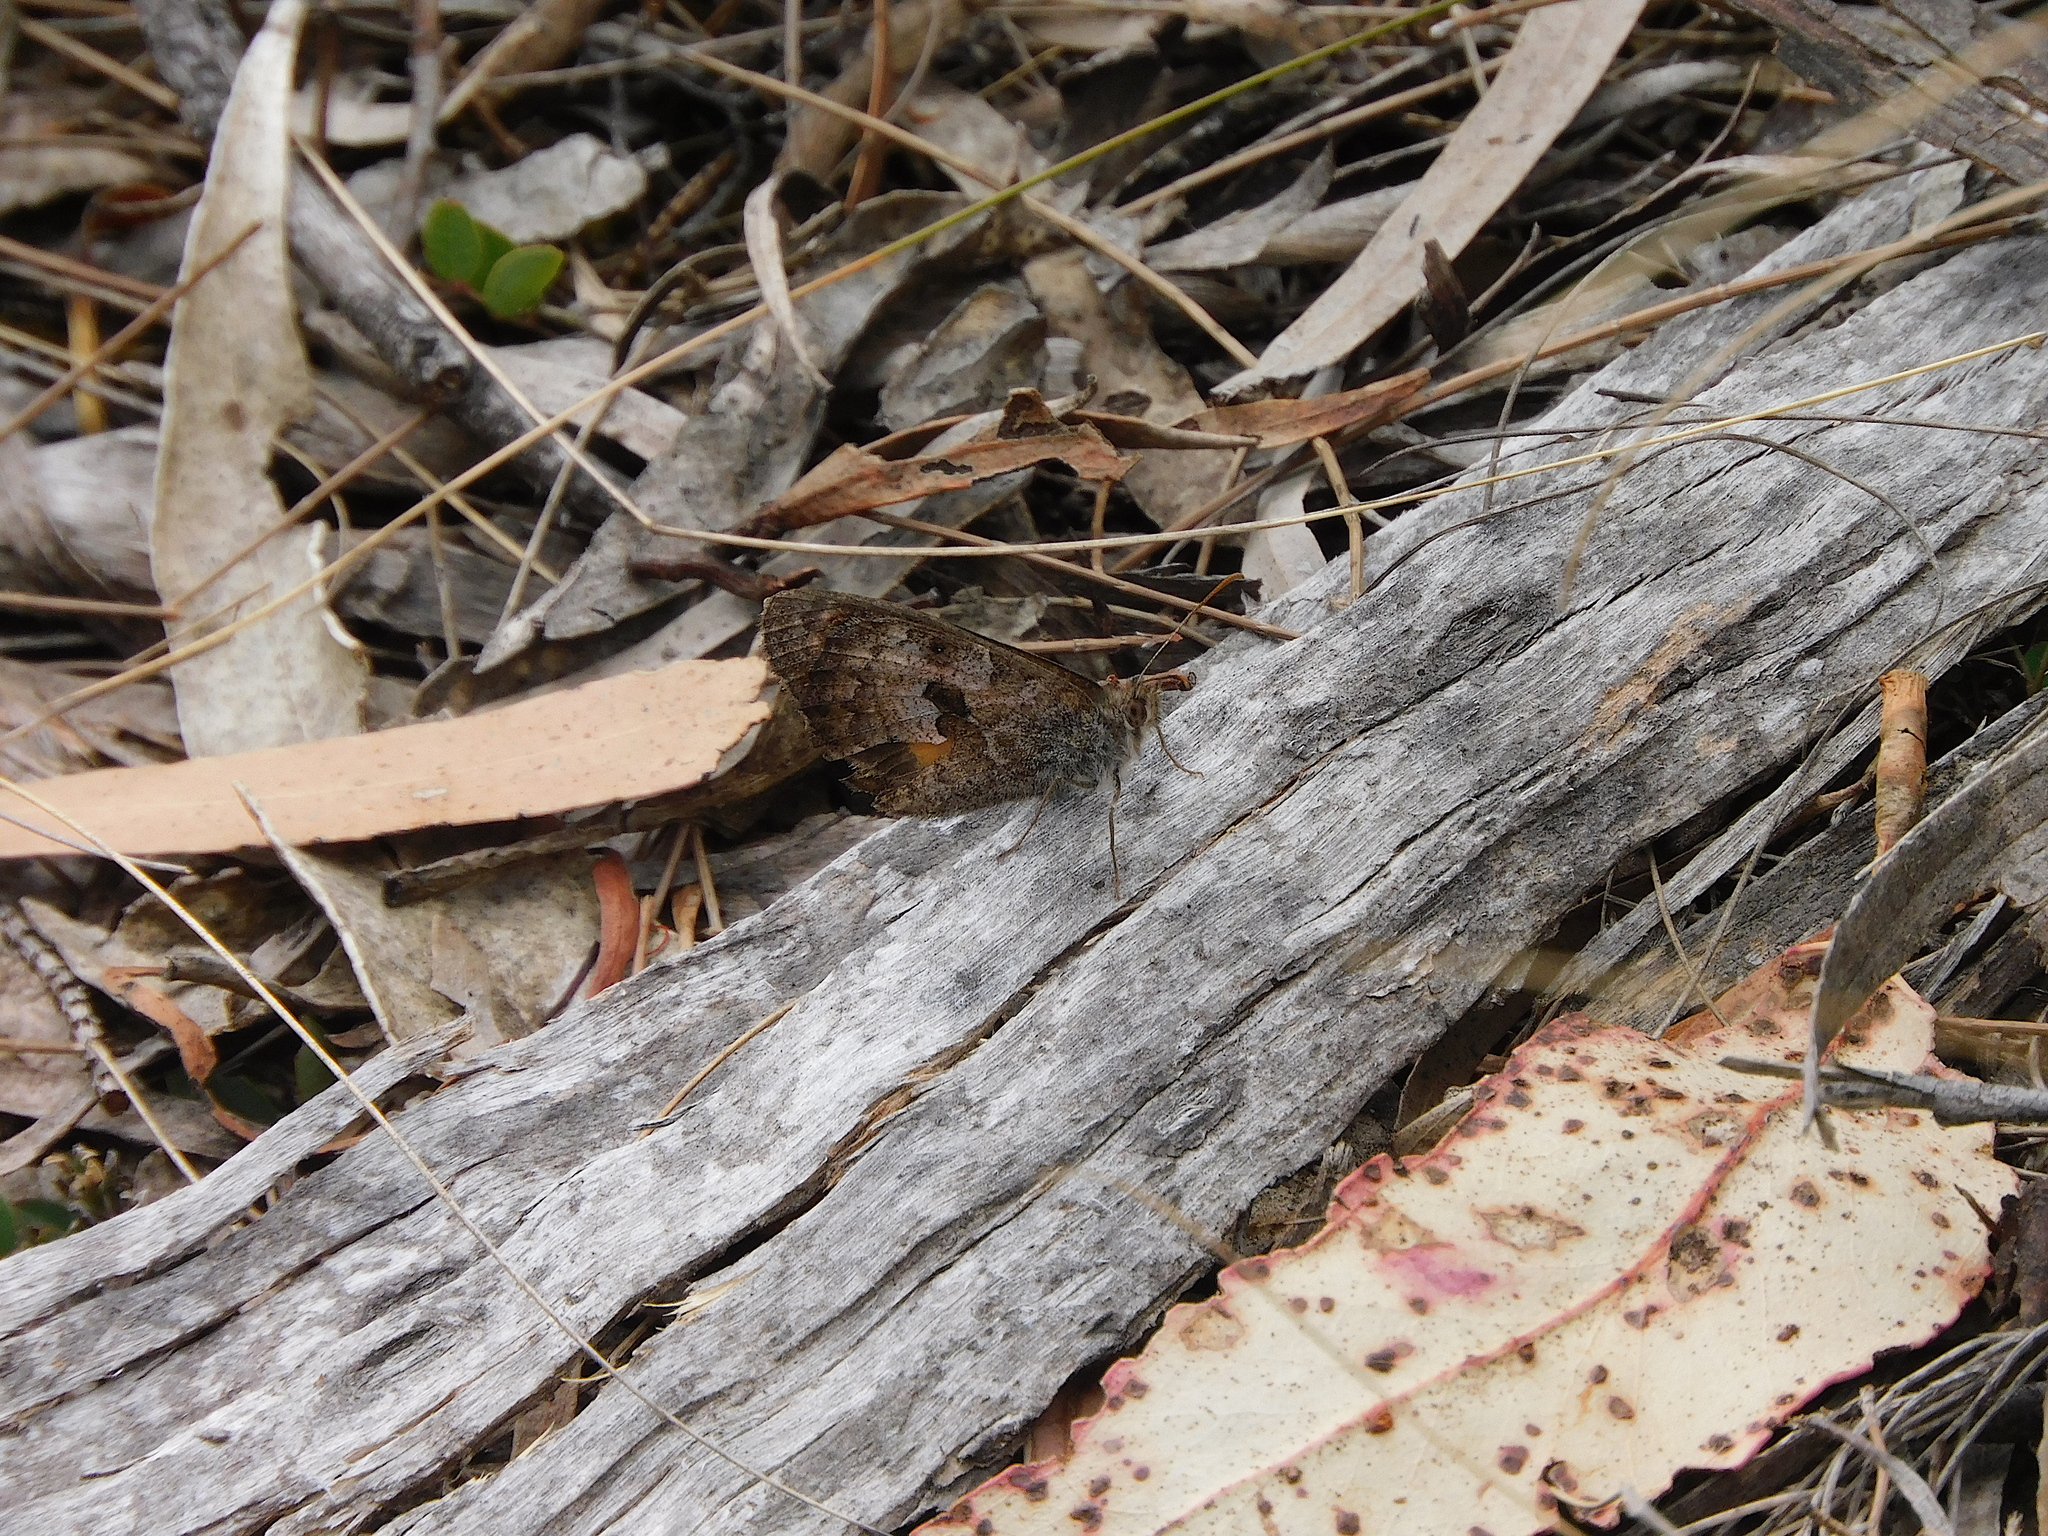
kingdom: Animalia
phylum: Arthropoda
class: Insecta
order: Lepidoptera
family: Nymphalidae
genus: Geitoneura
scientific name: Geitoneura klugii
